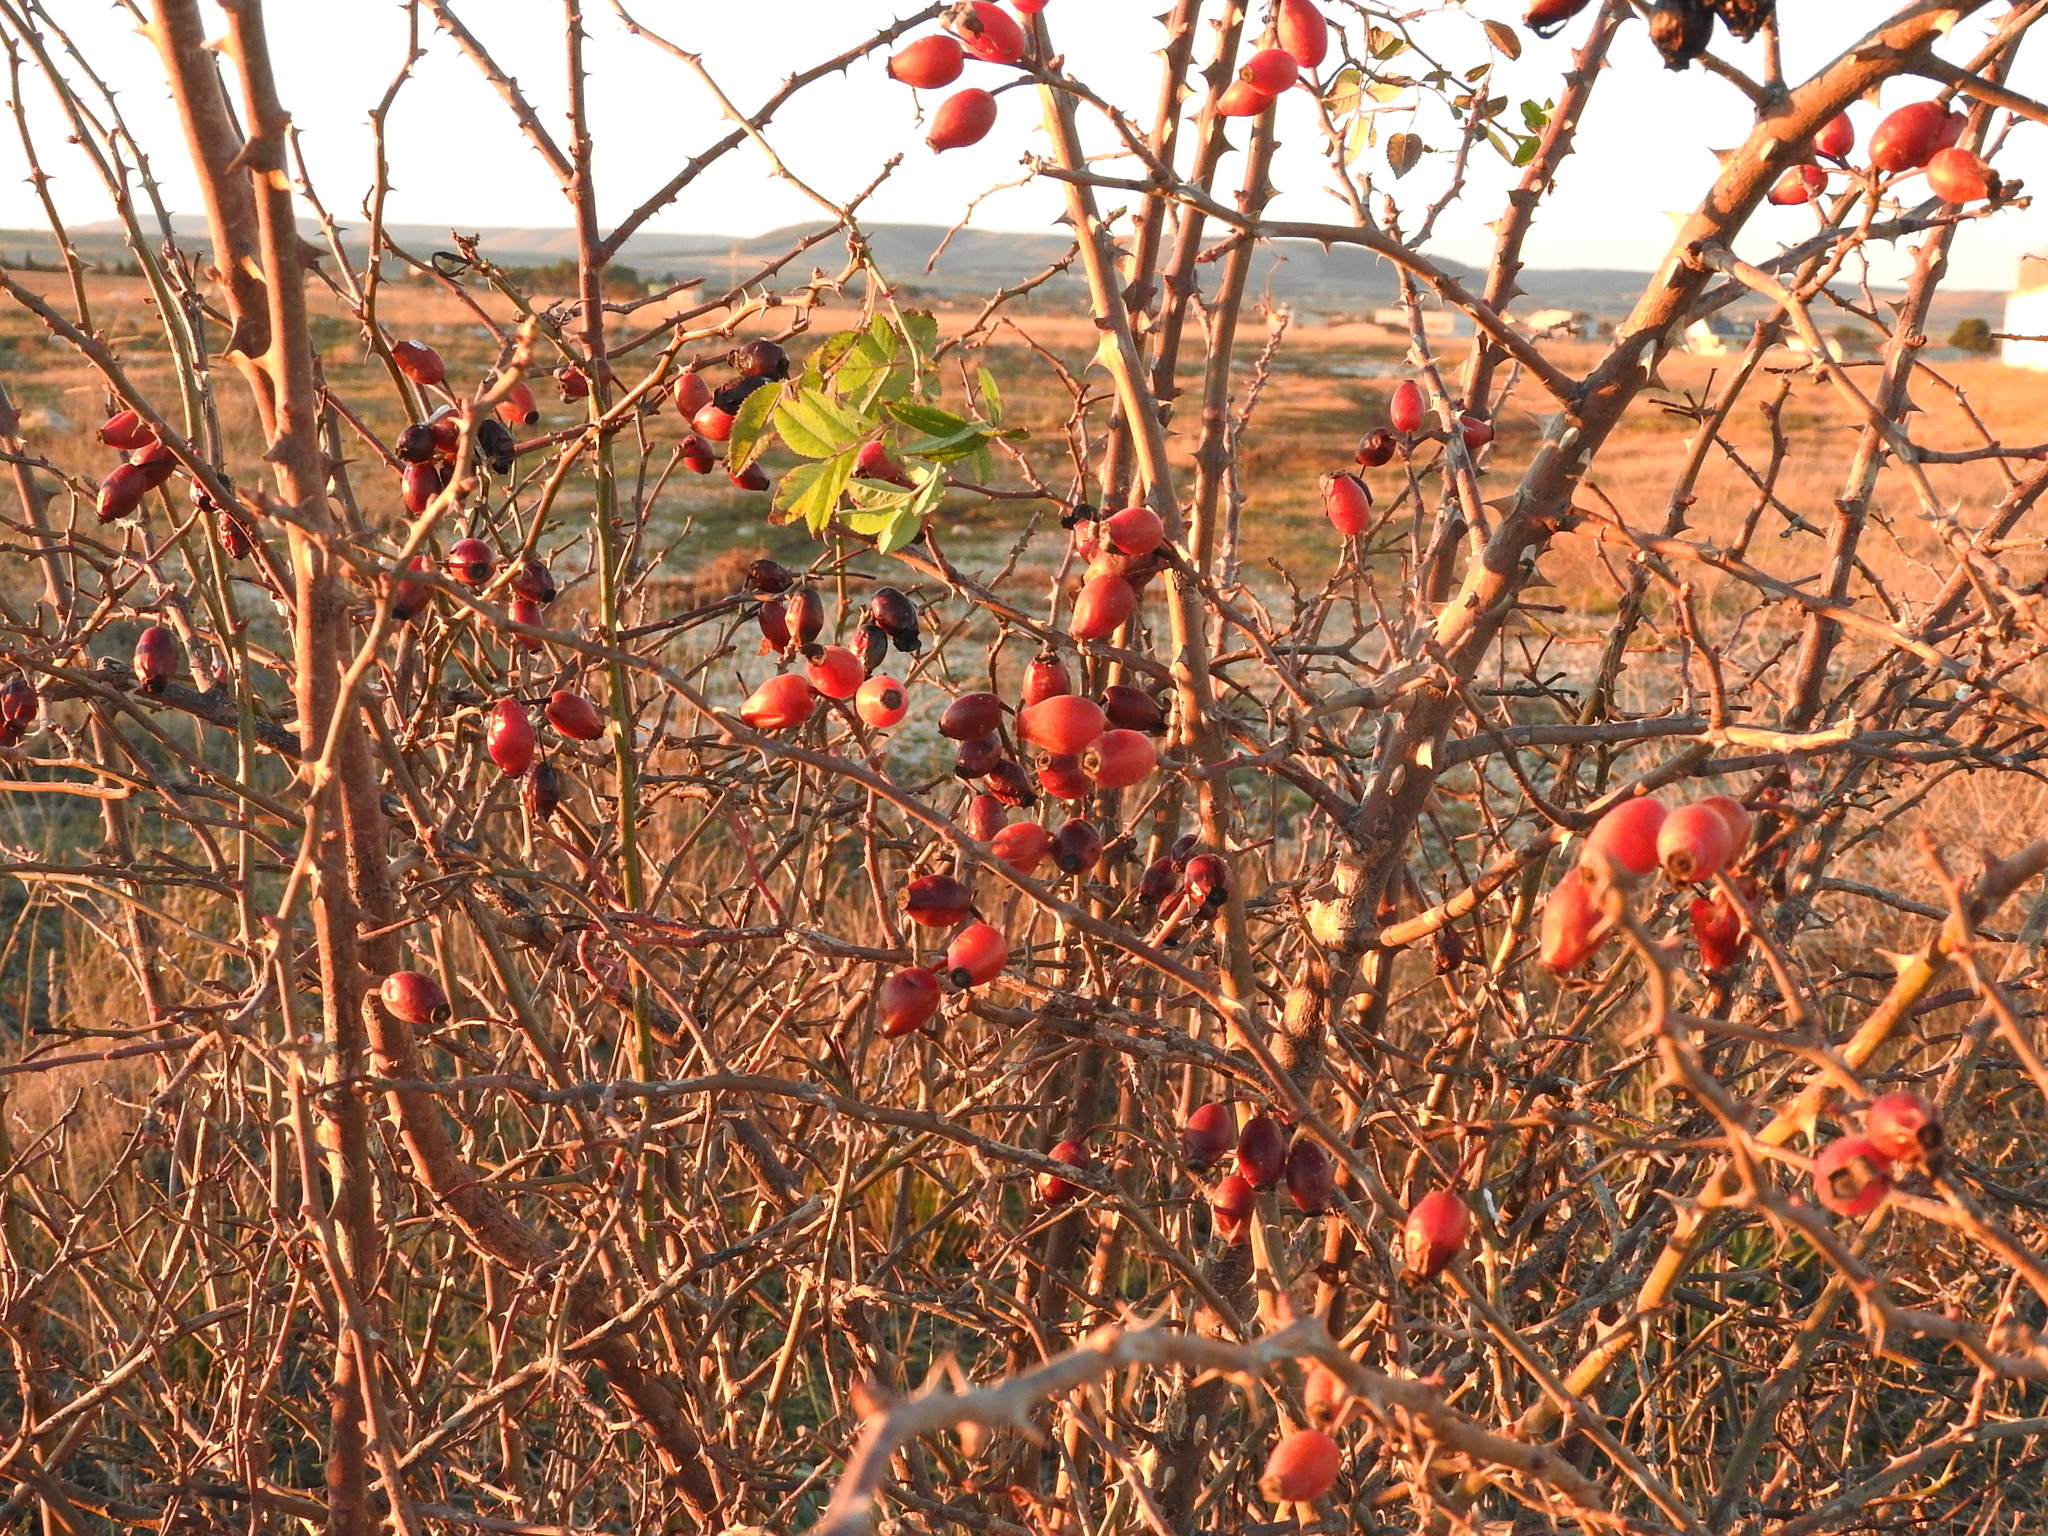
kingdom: Plantae
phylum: Tracheophyta
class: Magnoliopsida
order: Rosales
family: Rosaceae
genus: Rosa
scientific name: Rosa canina
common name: Dog rose
